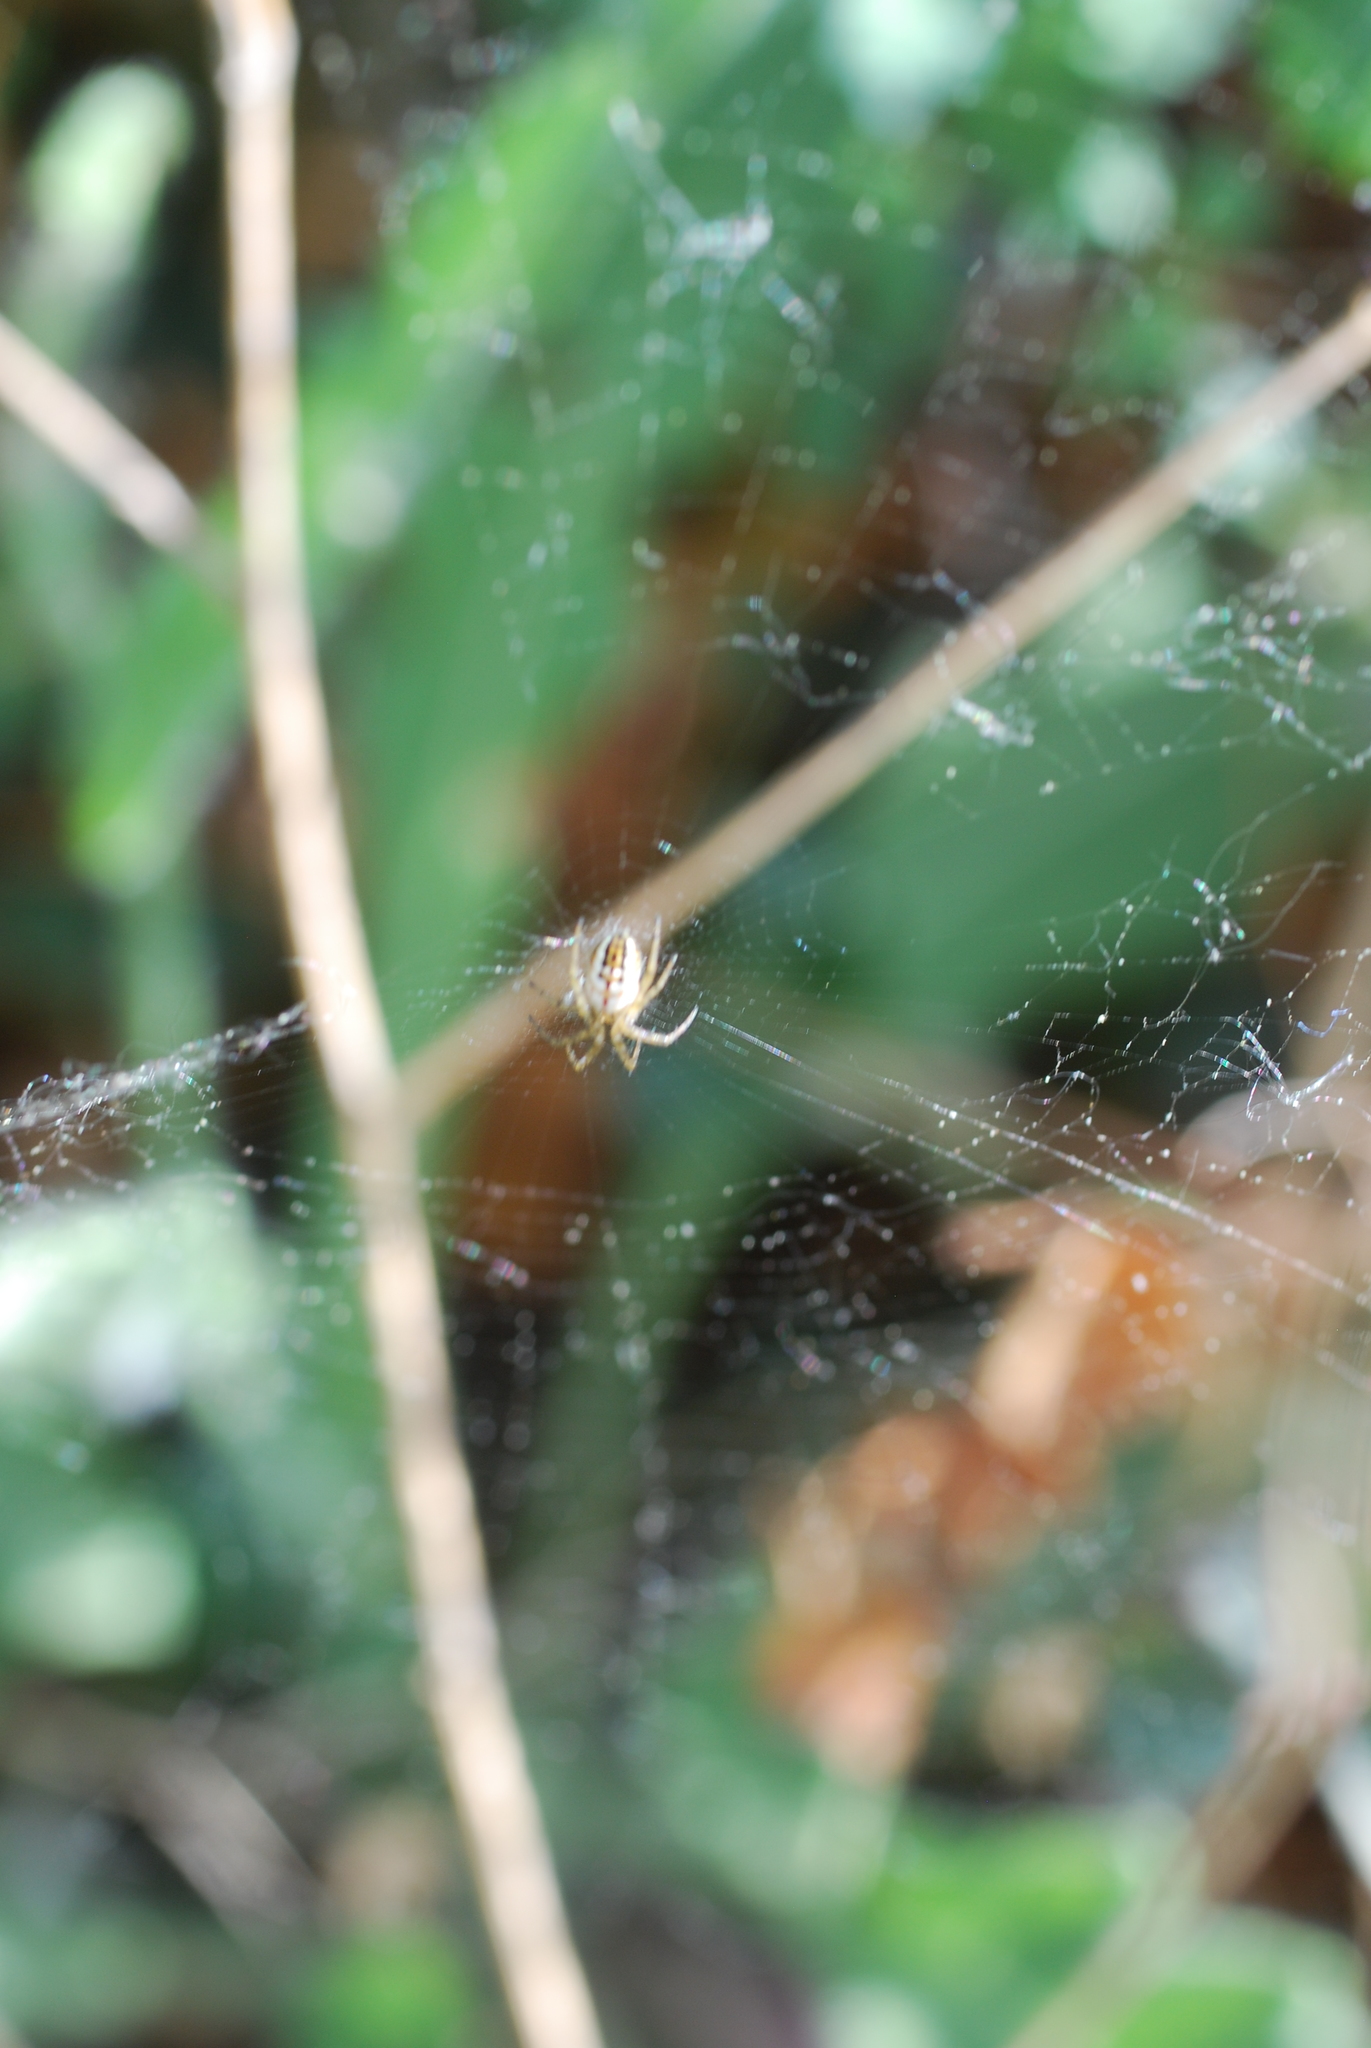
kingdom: Animalia
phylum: Arthropoda
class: Arachnida
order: Araneae
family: Araneidae
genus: Mangora
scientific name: Mangora acalypha
